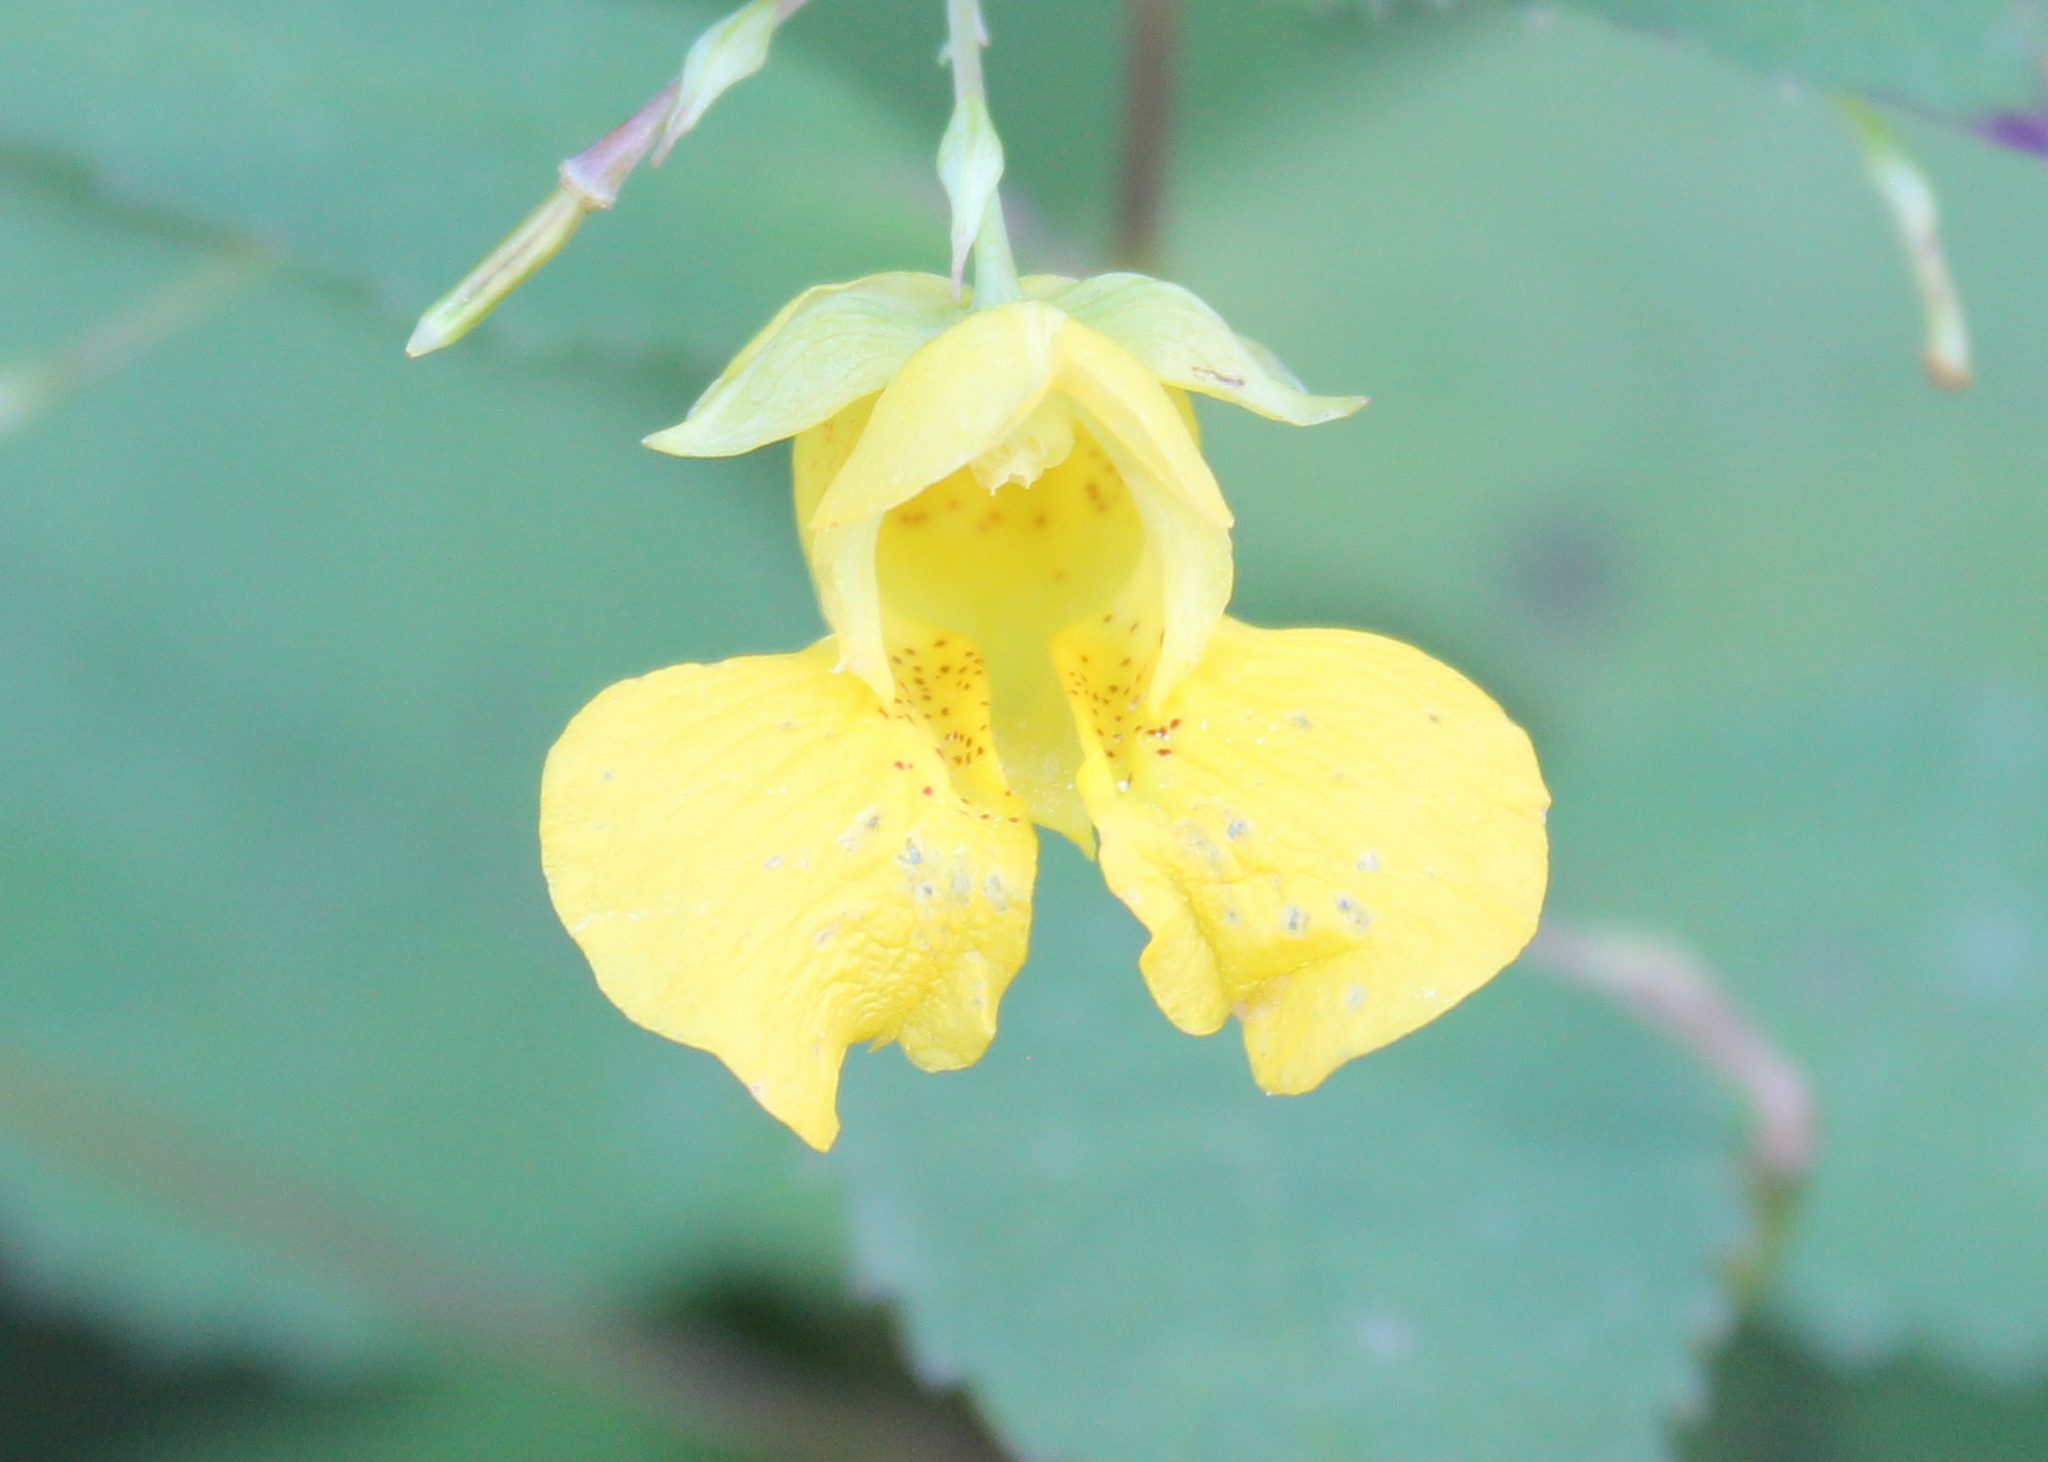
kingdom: Plantae
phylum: Tracheophyta
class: Magnoliopsida
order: Ericales
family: Balsaminaceae
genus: Impatiens
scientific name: Impatiens pallida
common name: Pale snapweed
